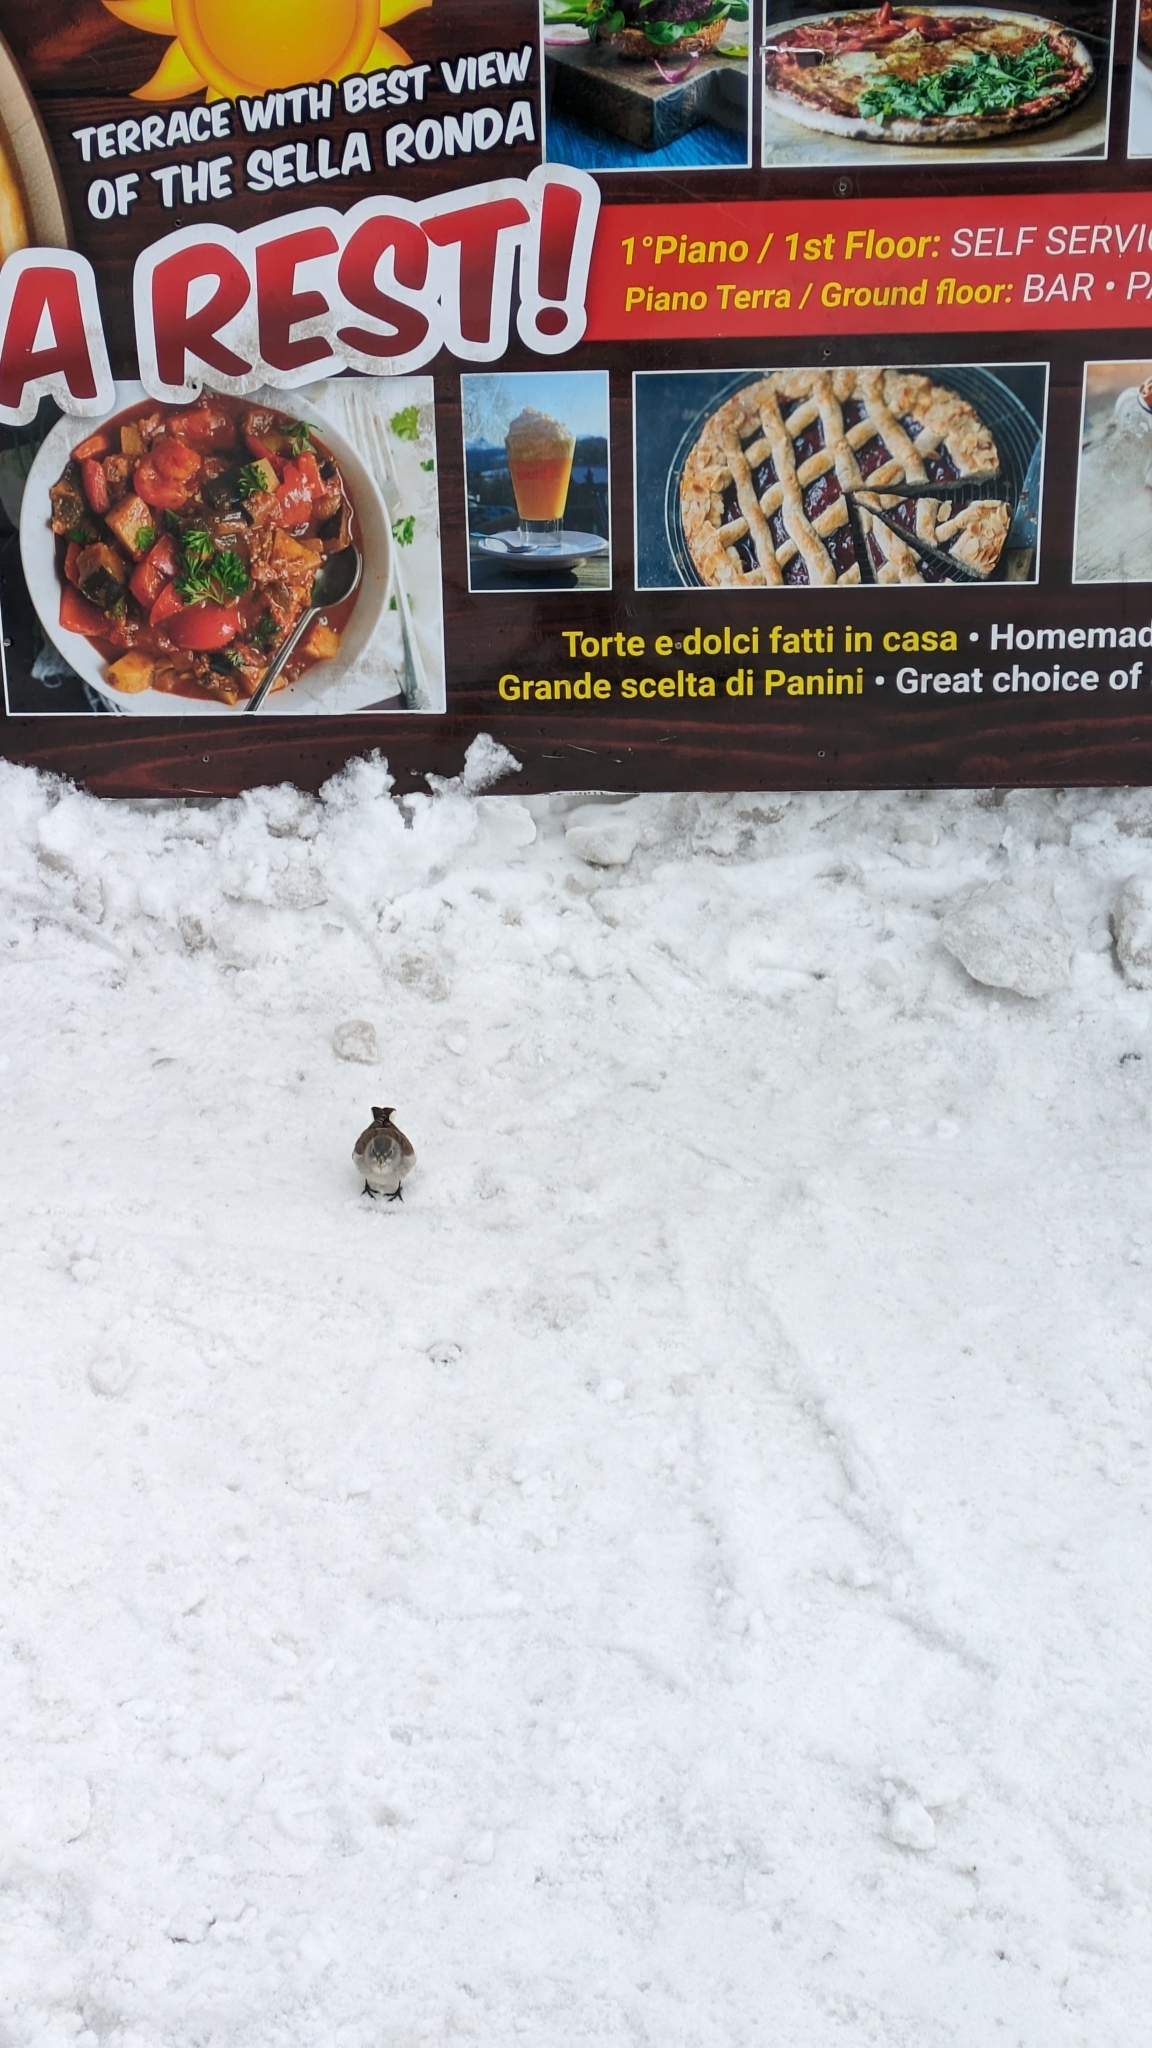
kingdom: Animalia
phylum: Chordata
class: Aves
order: Passeriformes
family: Passeridae
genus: Montifringilla
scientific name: Montifringilla nivalis
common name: White-winged snowfinch
